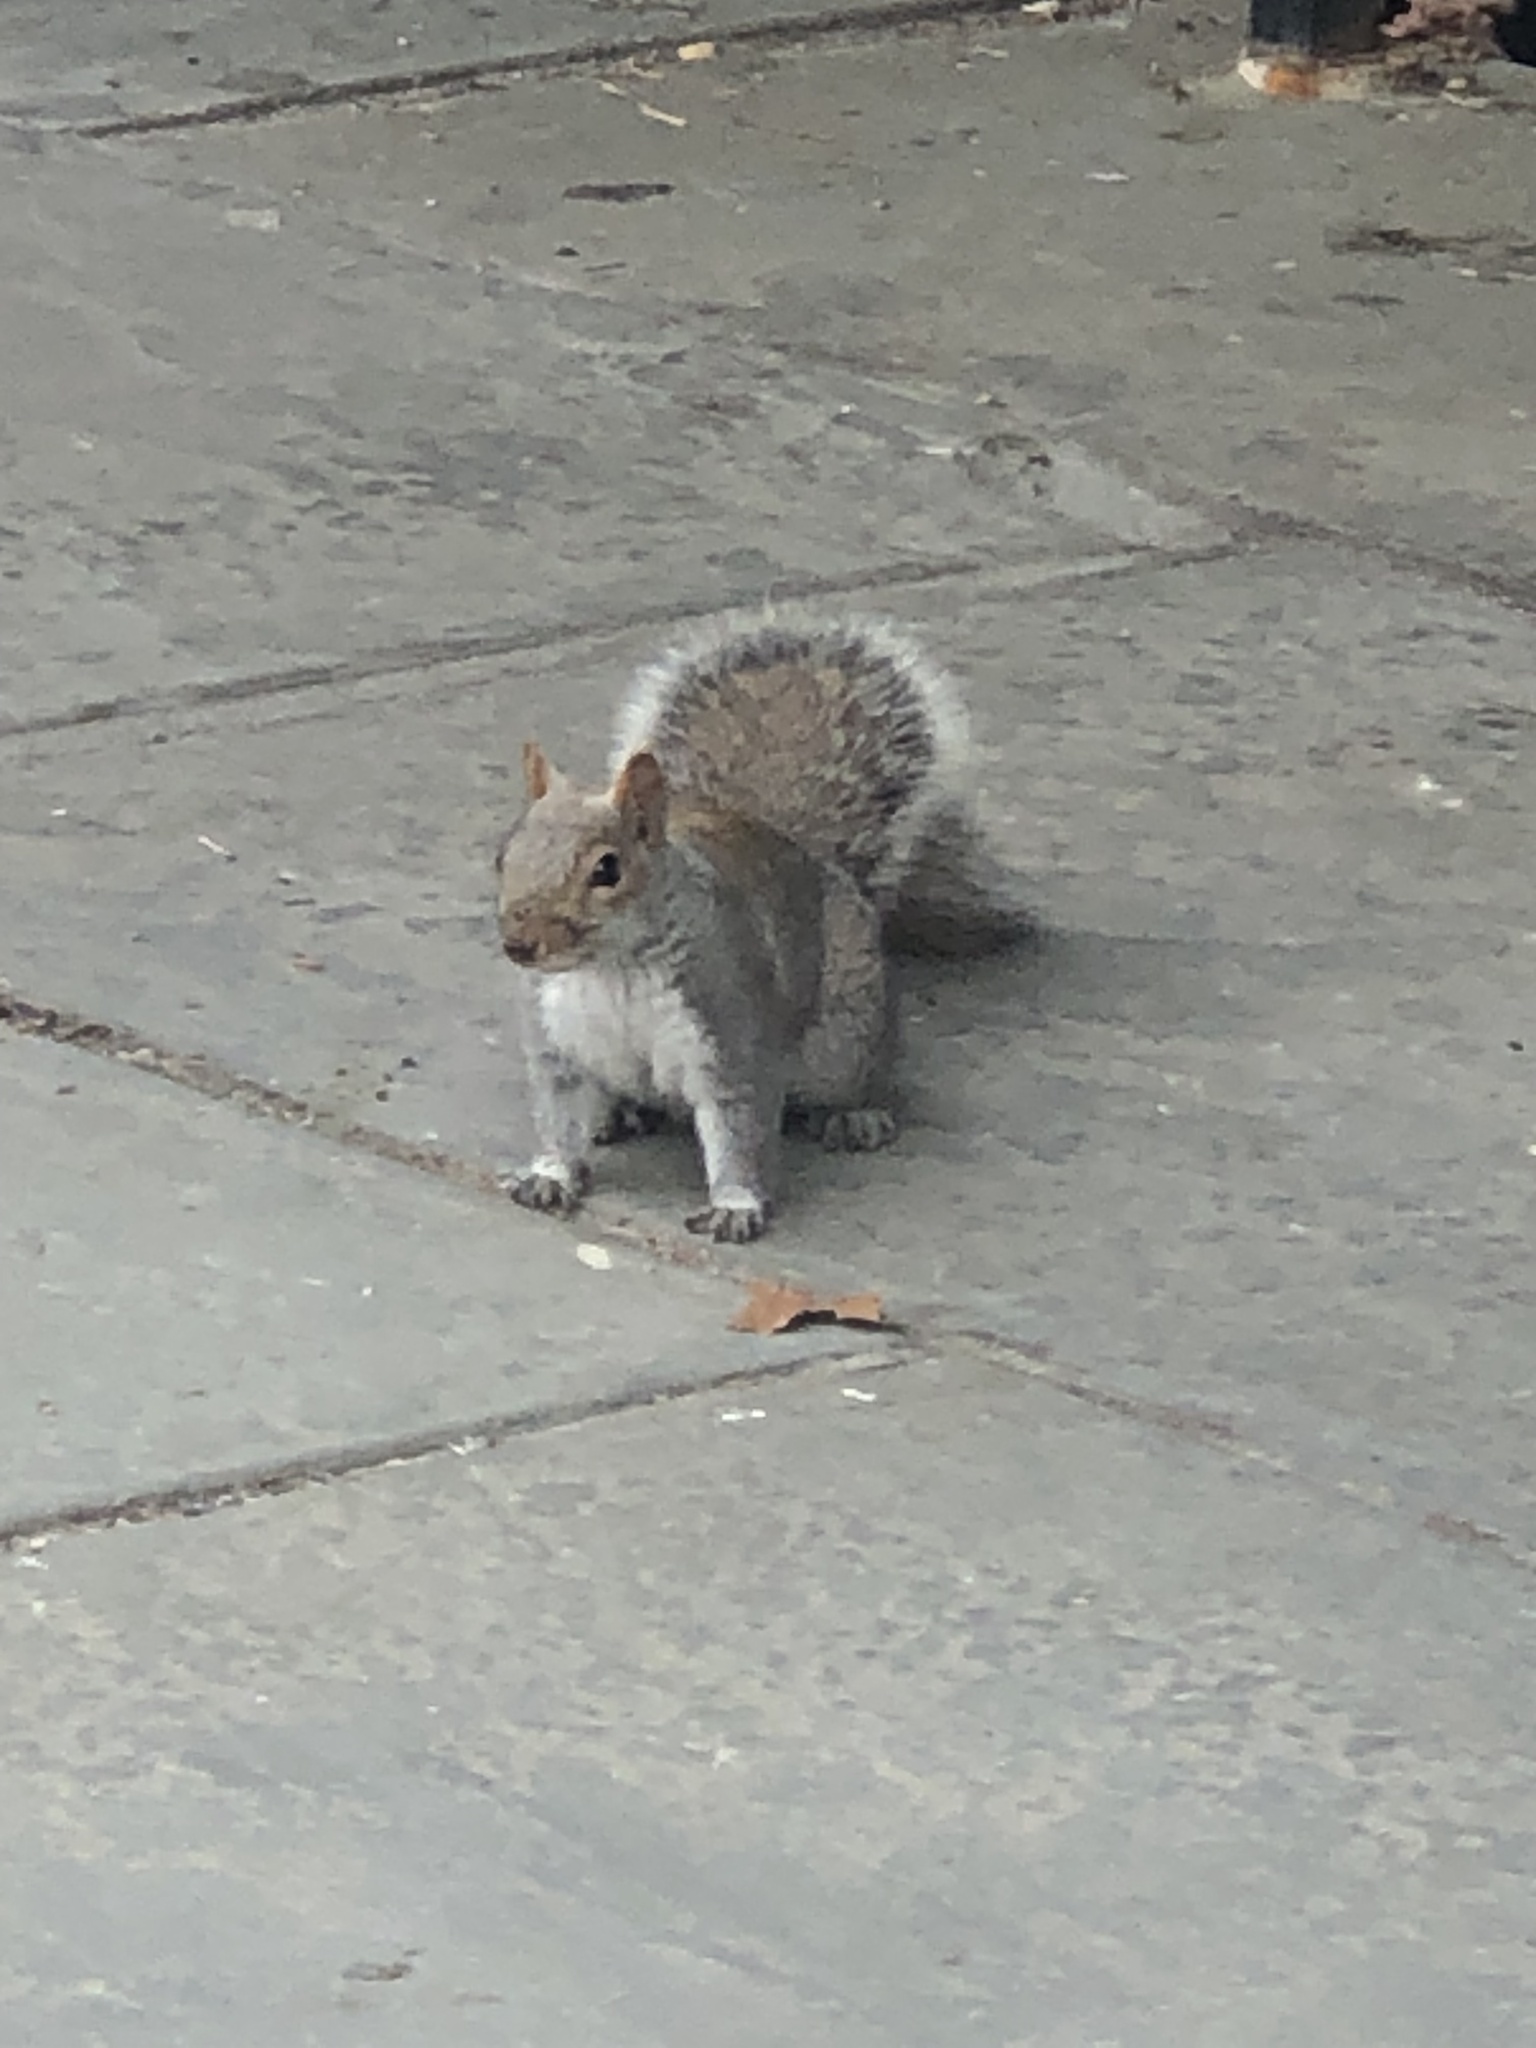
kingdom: Animalia
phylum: Chordata
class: Mammalia
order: Rodentia
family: Sciuridae
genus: Sciurus
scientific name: Sciurus carolinensis
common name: Eastern gray squirrel
